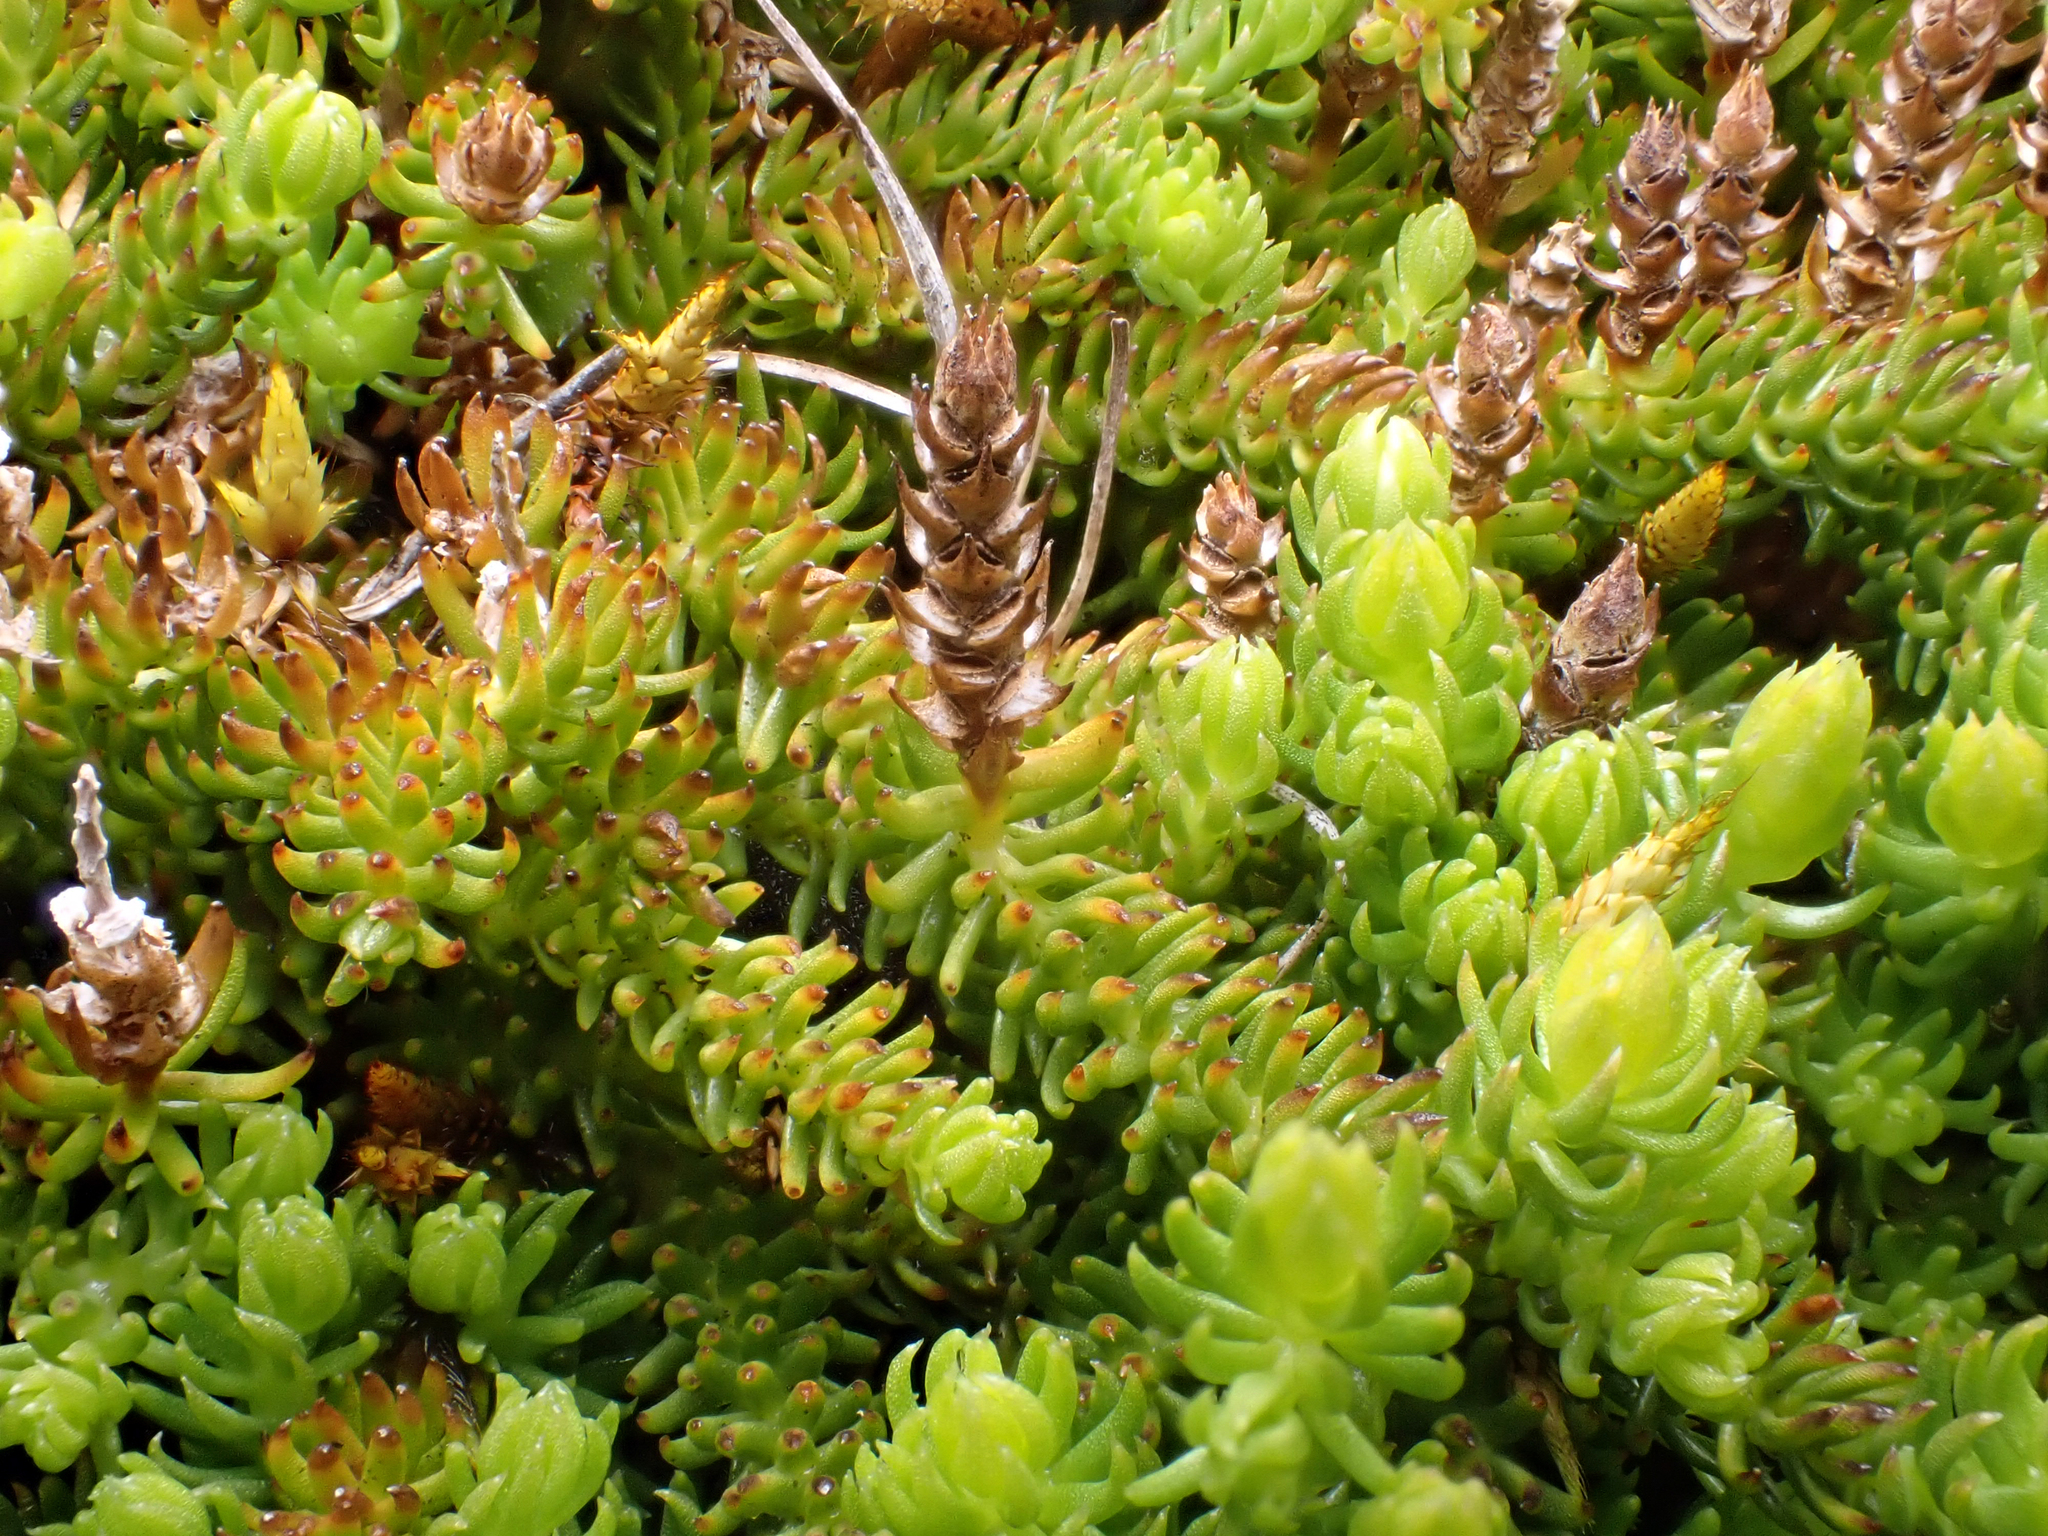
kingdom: Plantae
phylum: Tracheophyta
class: Lycopodiopsida
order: Lycopodiales
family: Lycopodiaceae
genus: Lateristachys
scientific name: Lateristachys diffusa
